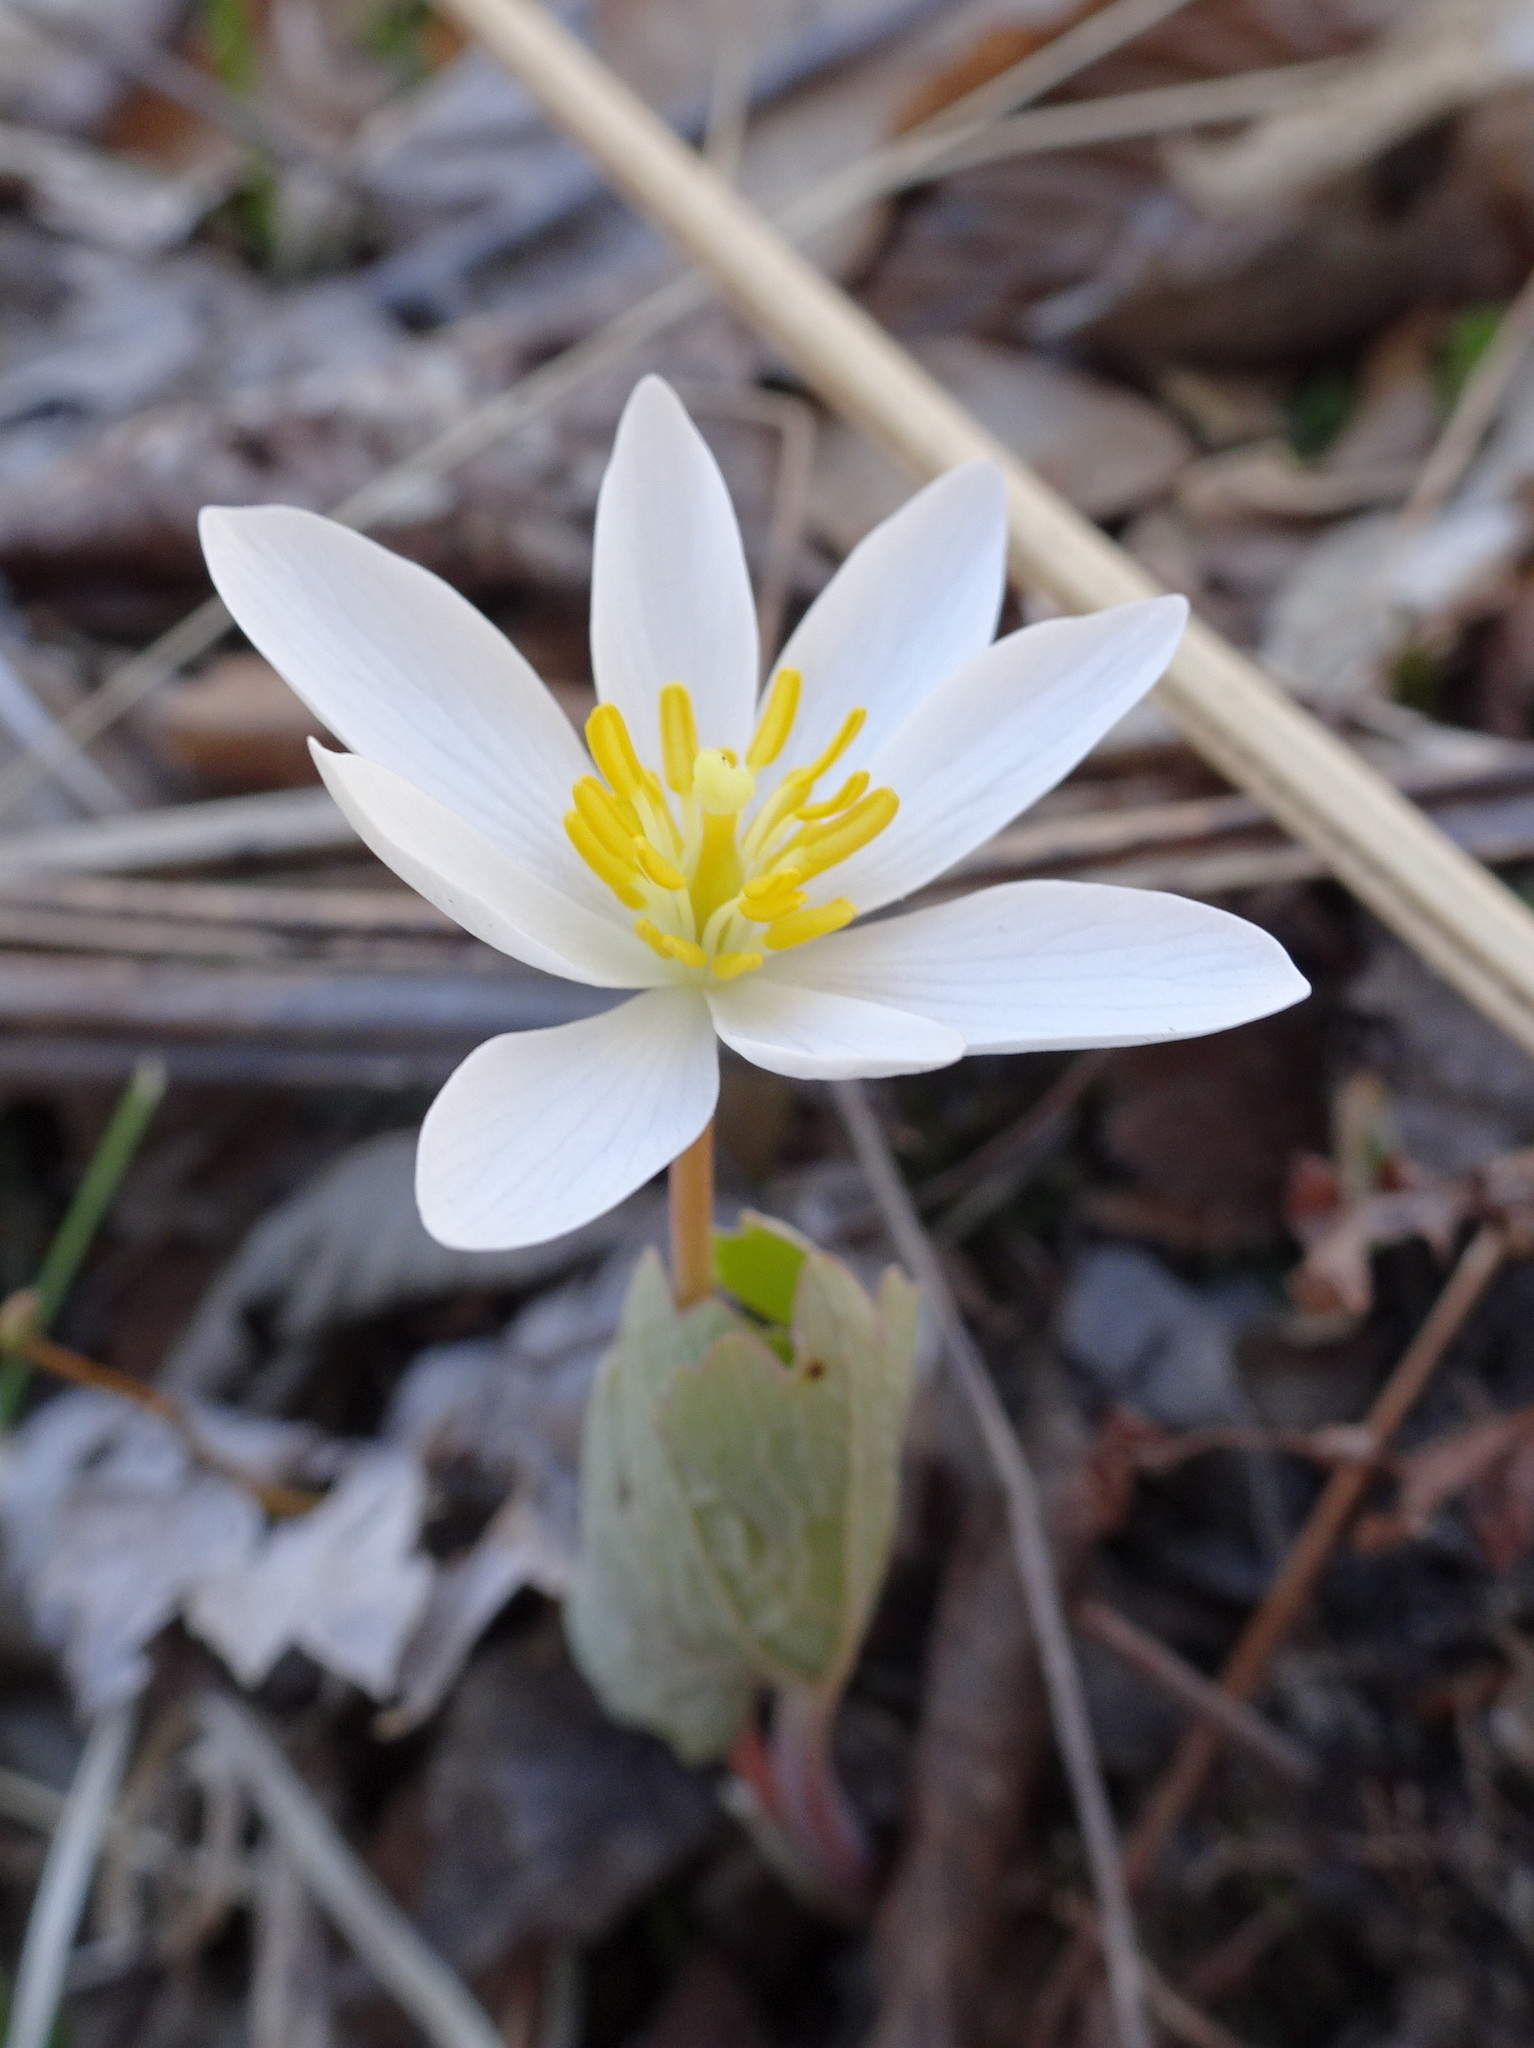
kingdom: Plantae
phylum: Tracheophyta
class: Magnoliopsida
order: Ranunculales
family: Papaveraceae
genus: Sanguinaria
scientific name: Sanguinaria canadensis
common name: Bloodroot
